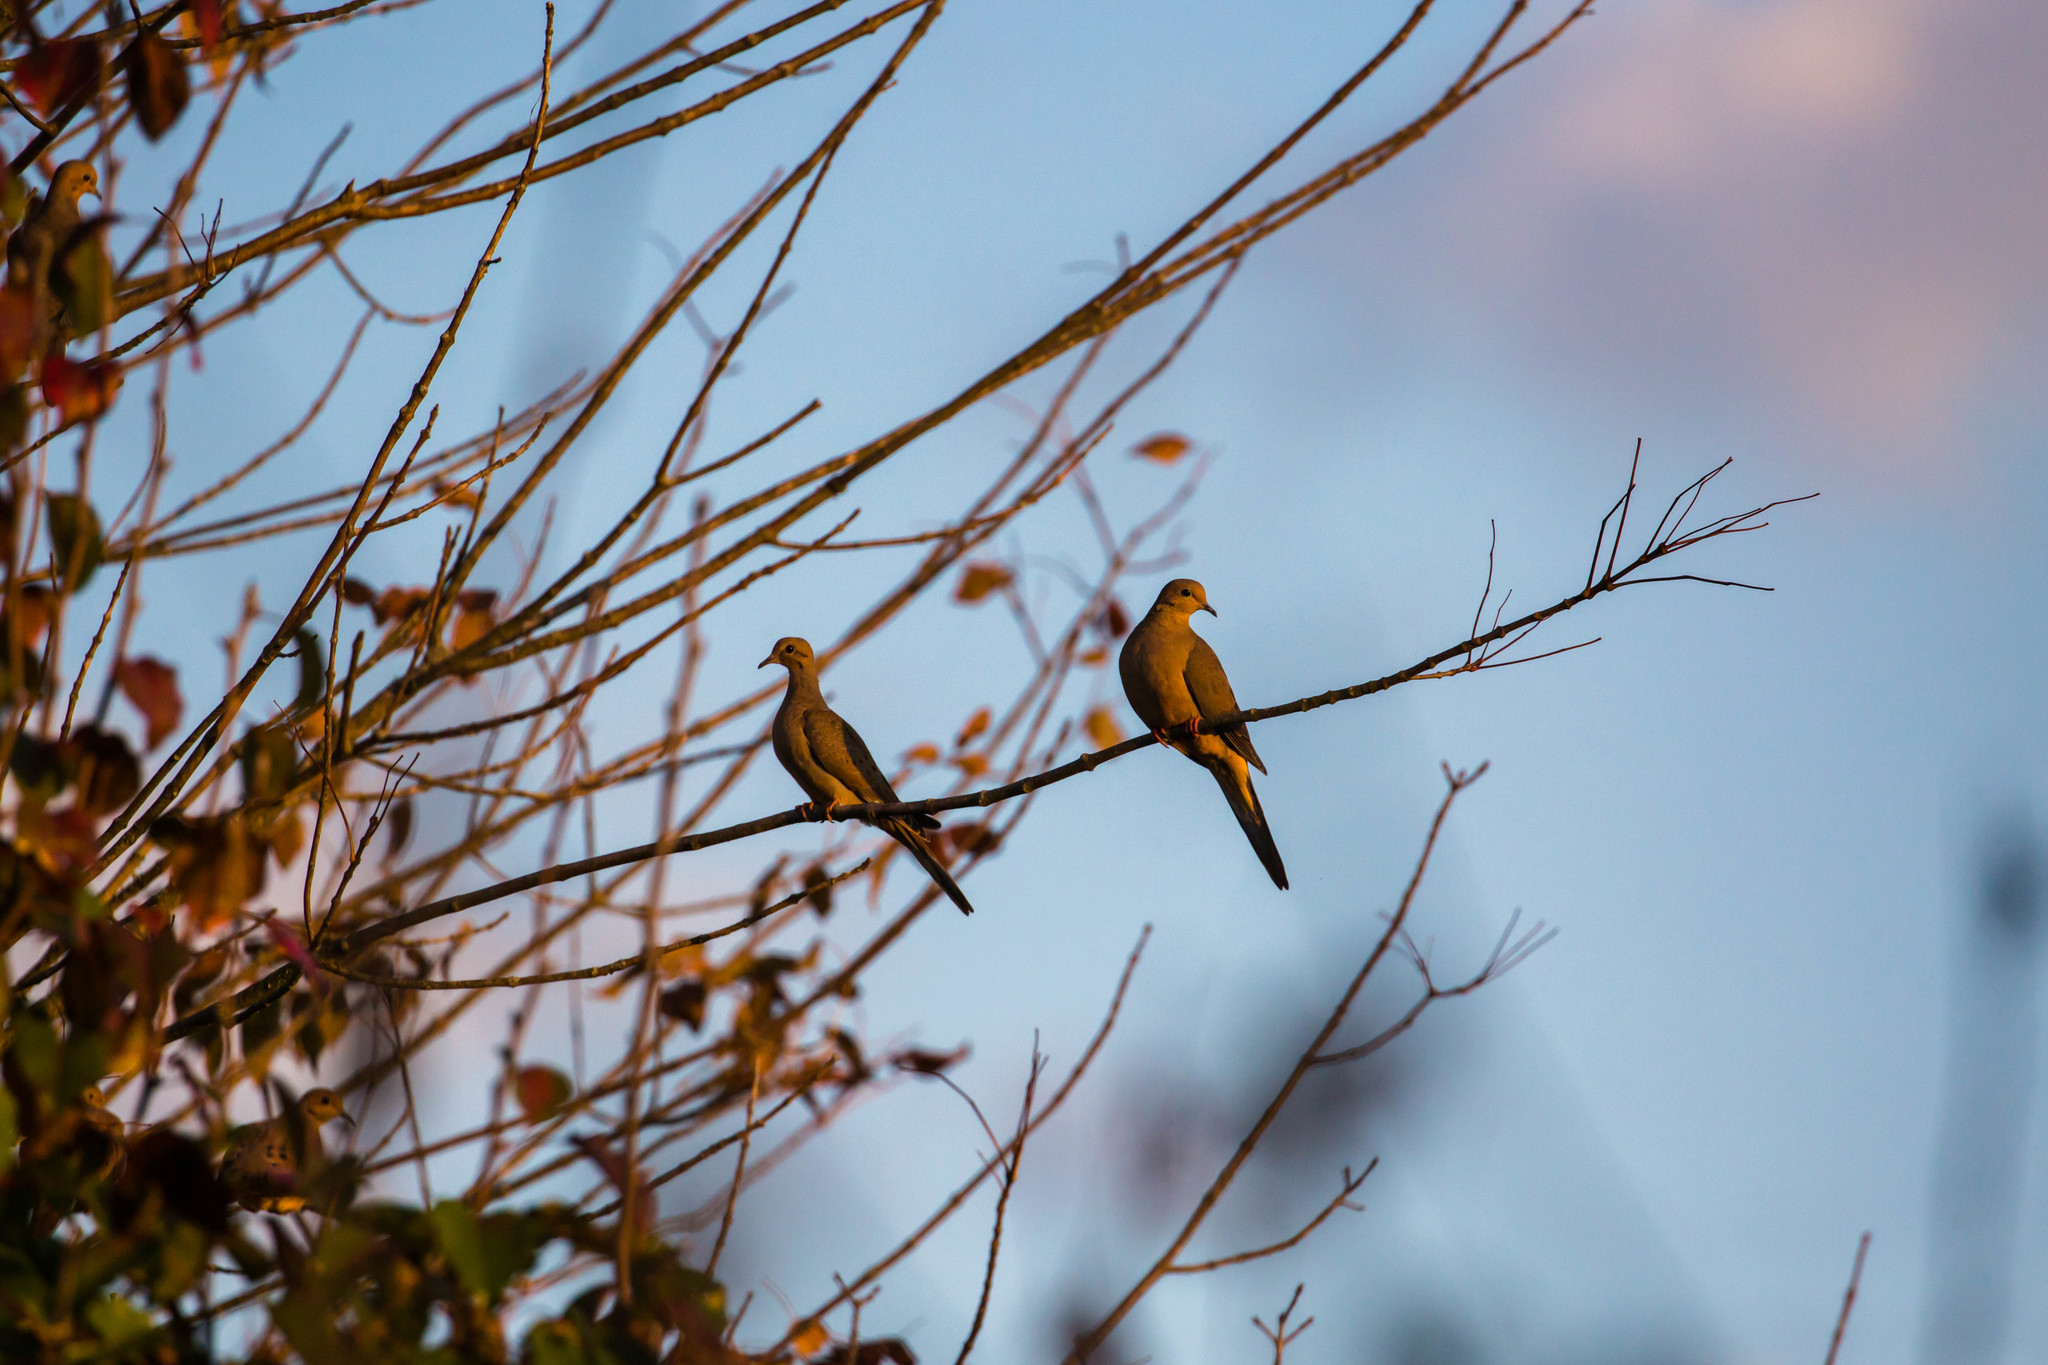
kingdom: Animalia
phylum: Chordata
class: Aves
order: Columbiformes
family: Columbidae
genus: Zenaida
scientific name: Zenaida macroura
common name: Mourning dove
